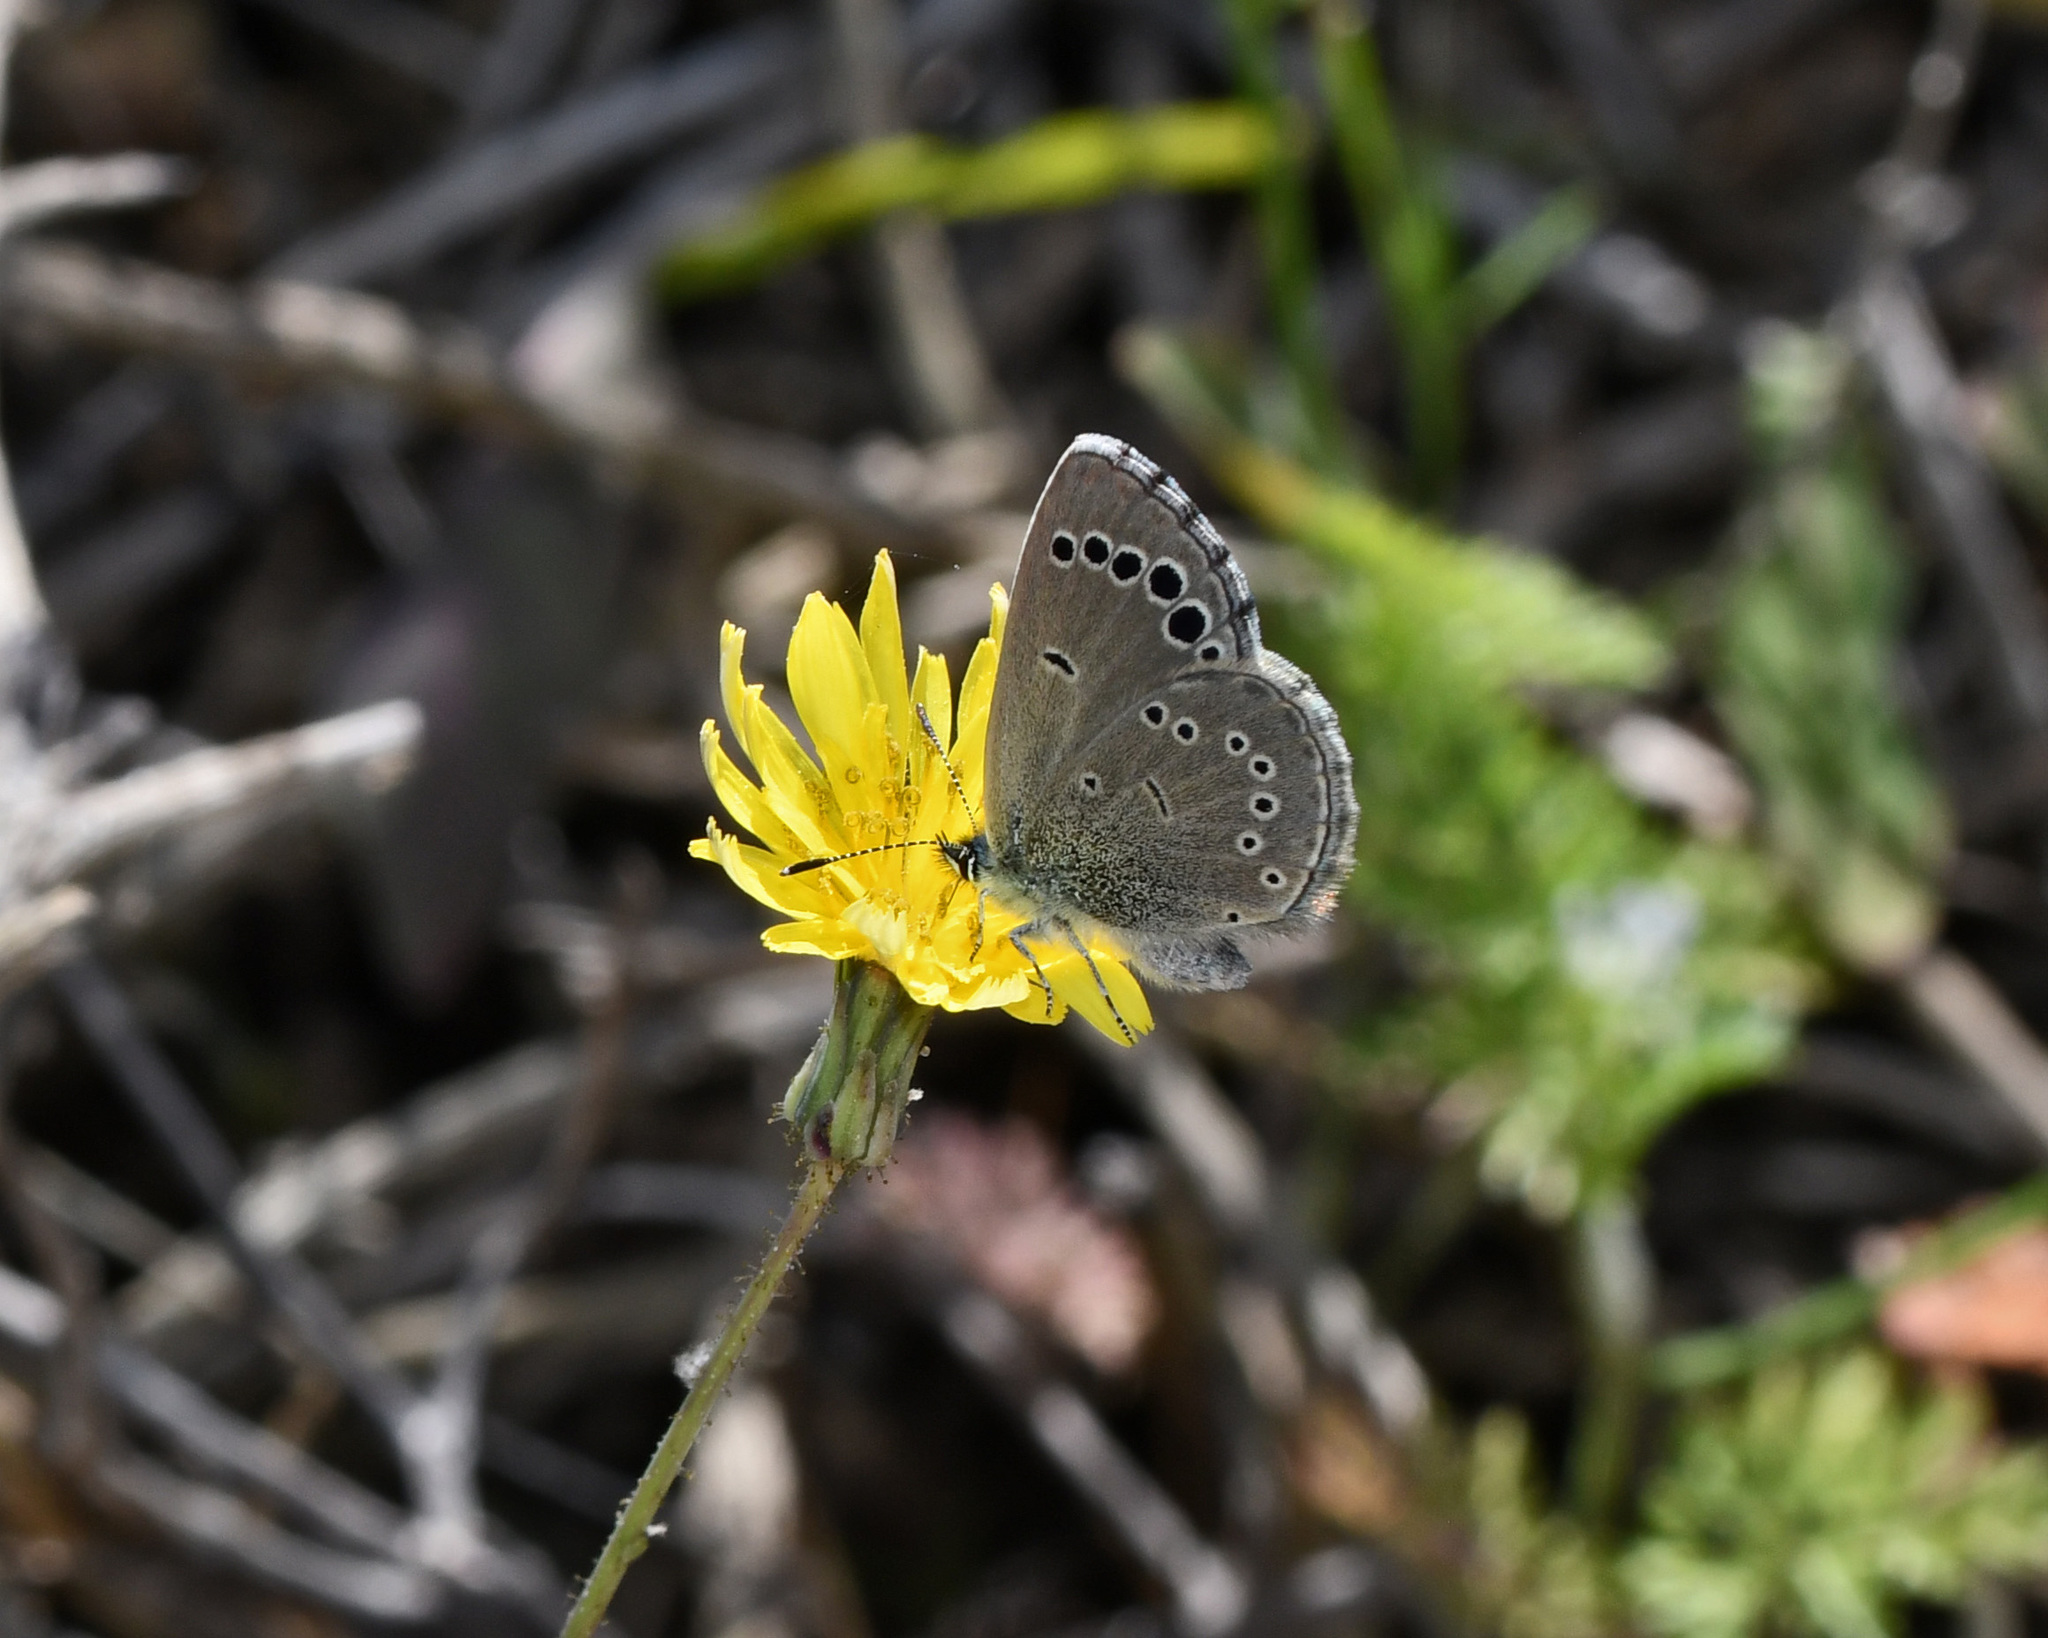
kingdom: Animalia
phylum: Arthropoda
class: Insecta
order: Lepidoptera
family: Lycaenidae
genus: Glaucopsyche
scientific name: Glaucopsyche paphos
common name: Paphos blue
